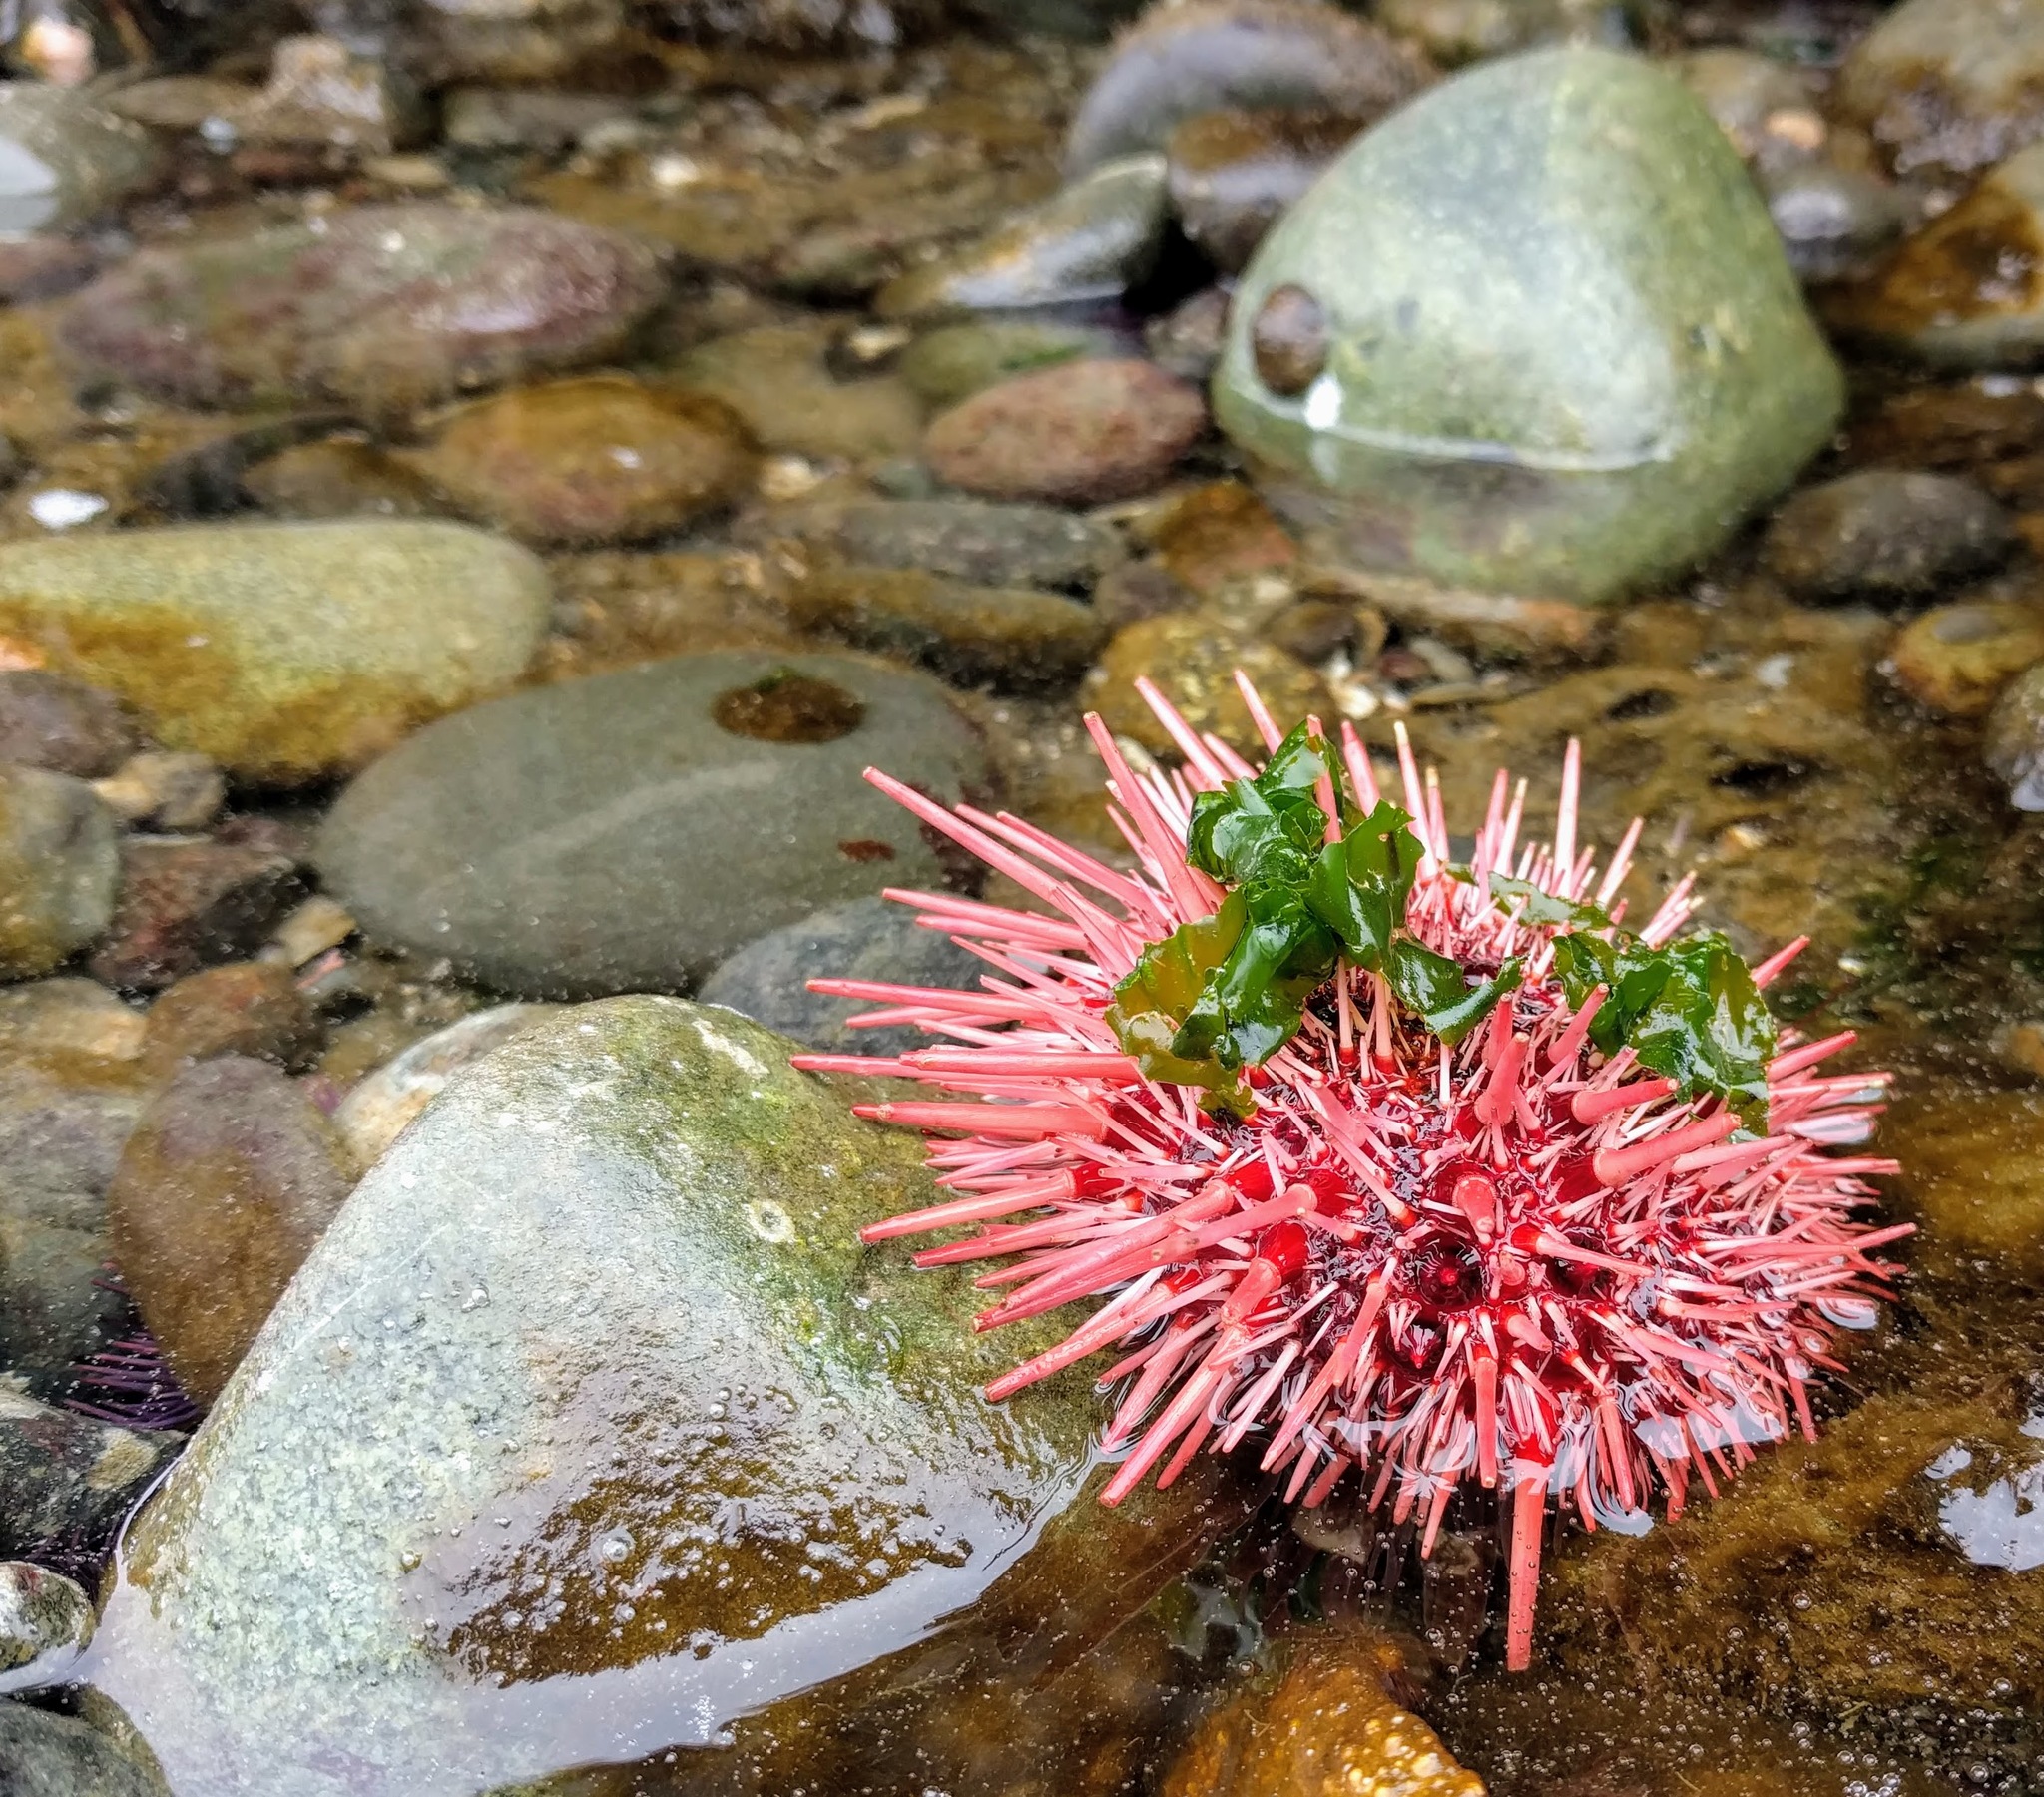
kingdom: Animalia
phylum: Echinodermata
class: Echinoidea
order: Camarodonta
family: Strongylocentrotidae
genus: Mesocentrotus
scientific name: Mesocentrotus franciscanus
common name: Red sea urchin
